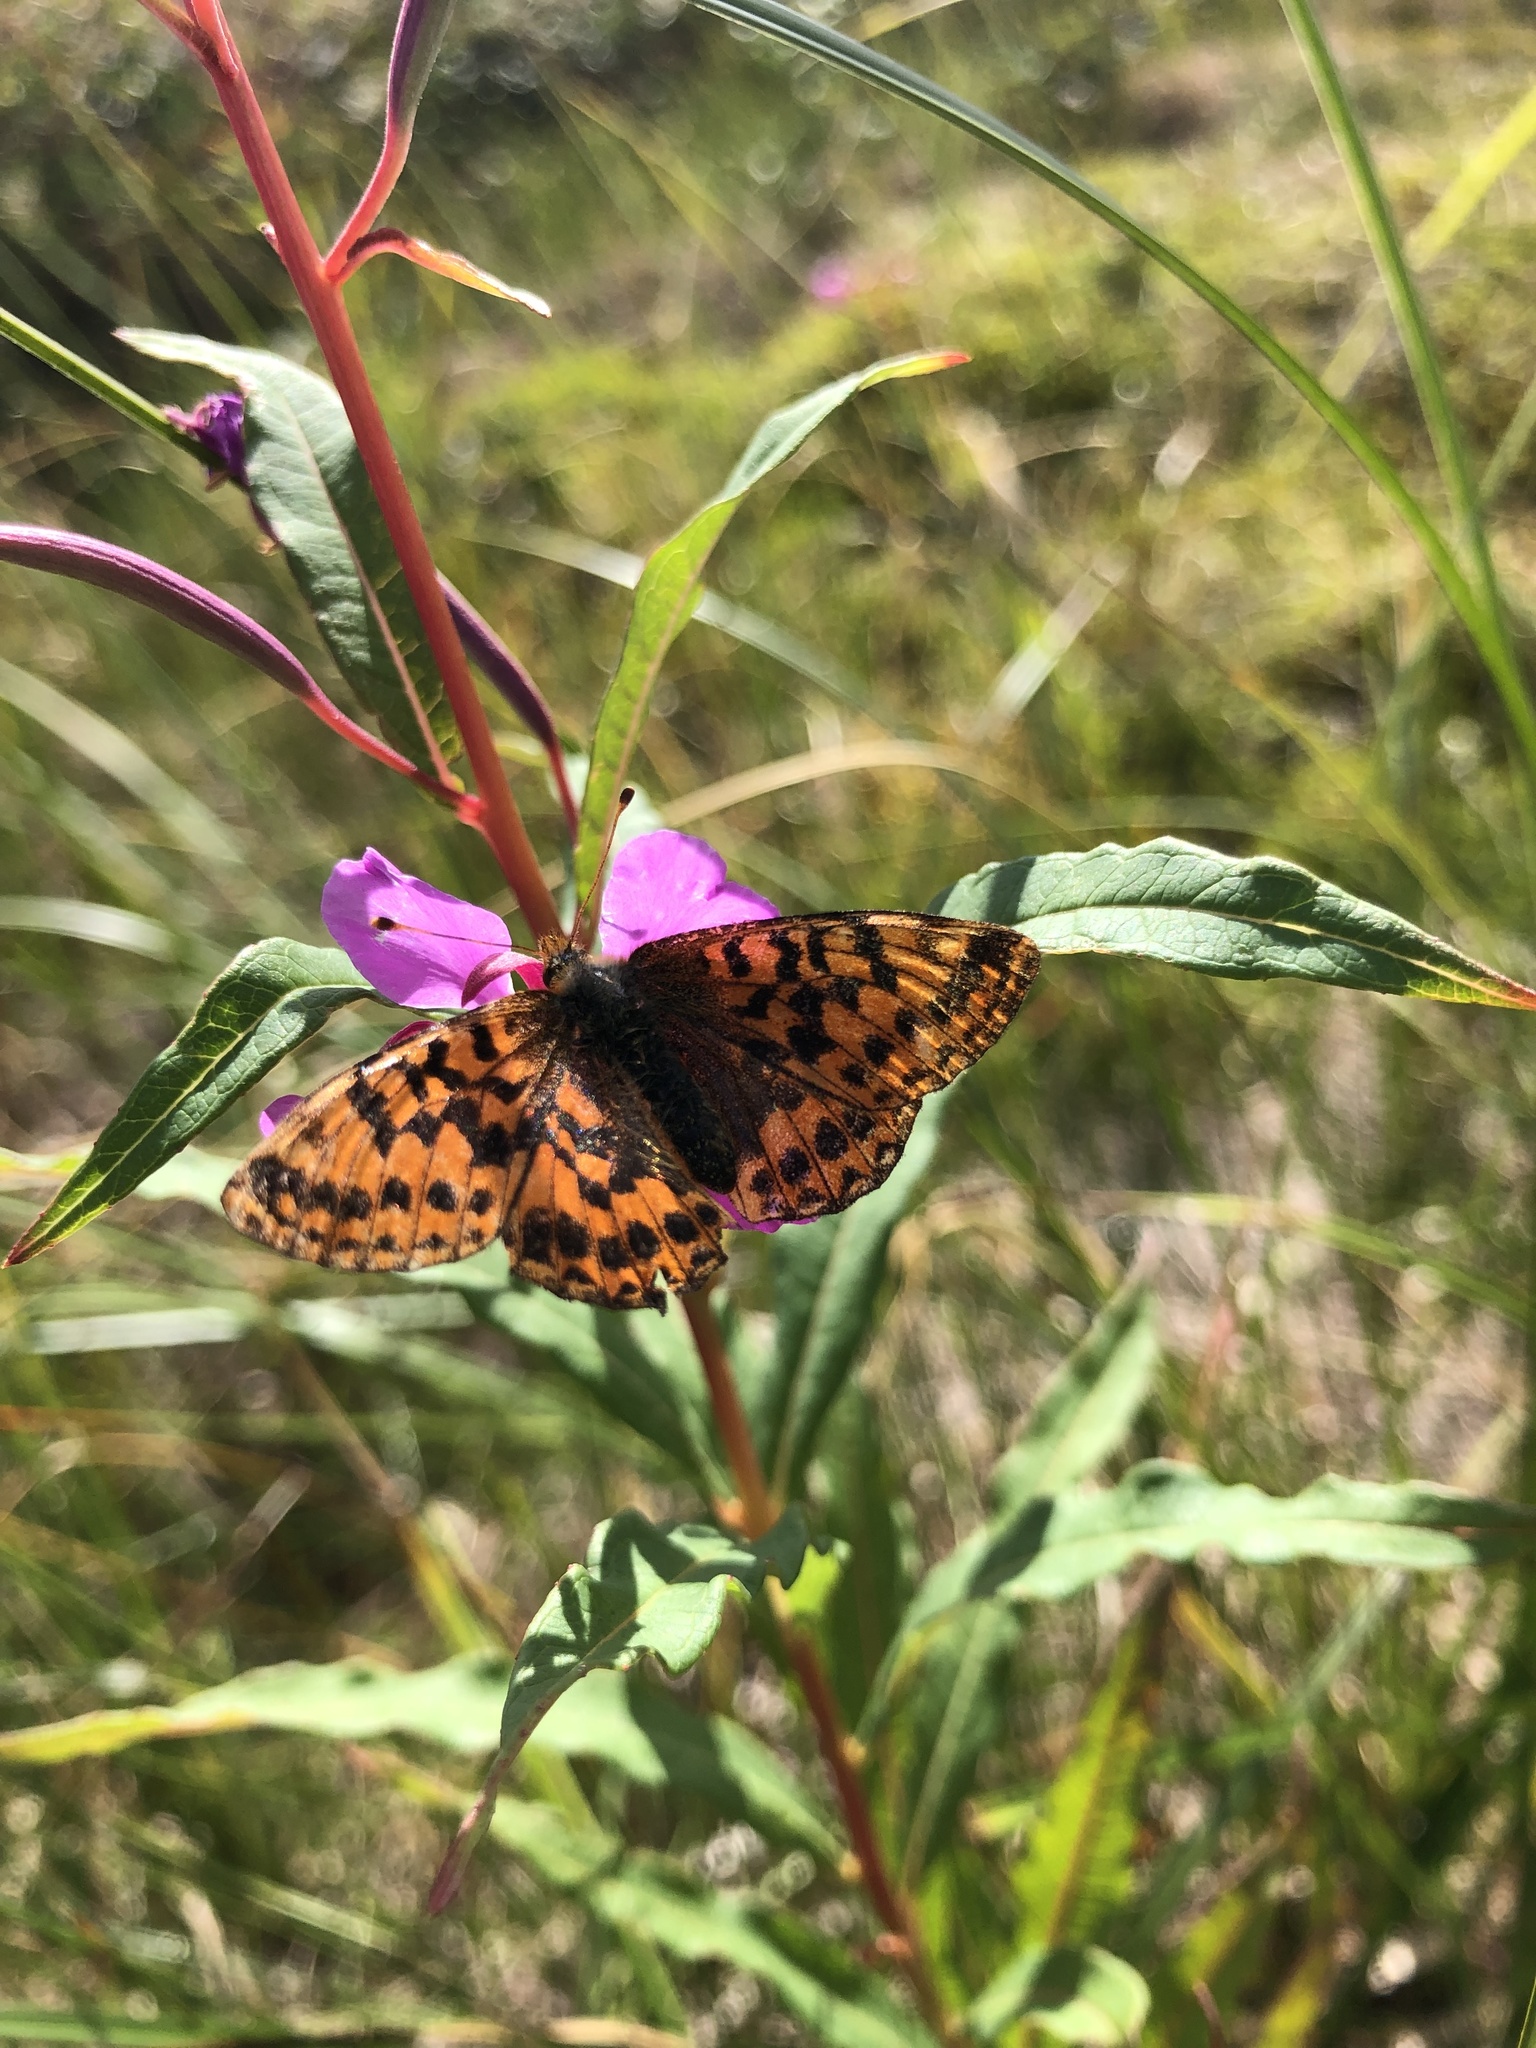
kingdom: Animalia
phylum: Arthropoda
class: Insecta
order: Lepidoptera
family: Nymphalidae
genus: Boloria
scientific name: Boloria aquilonaris
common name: Cranberry fritillary
